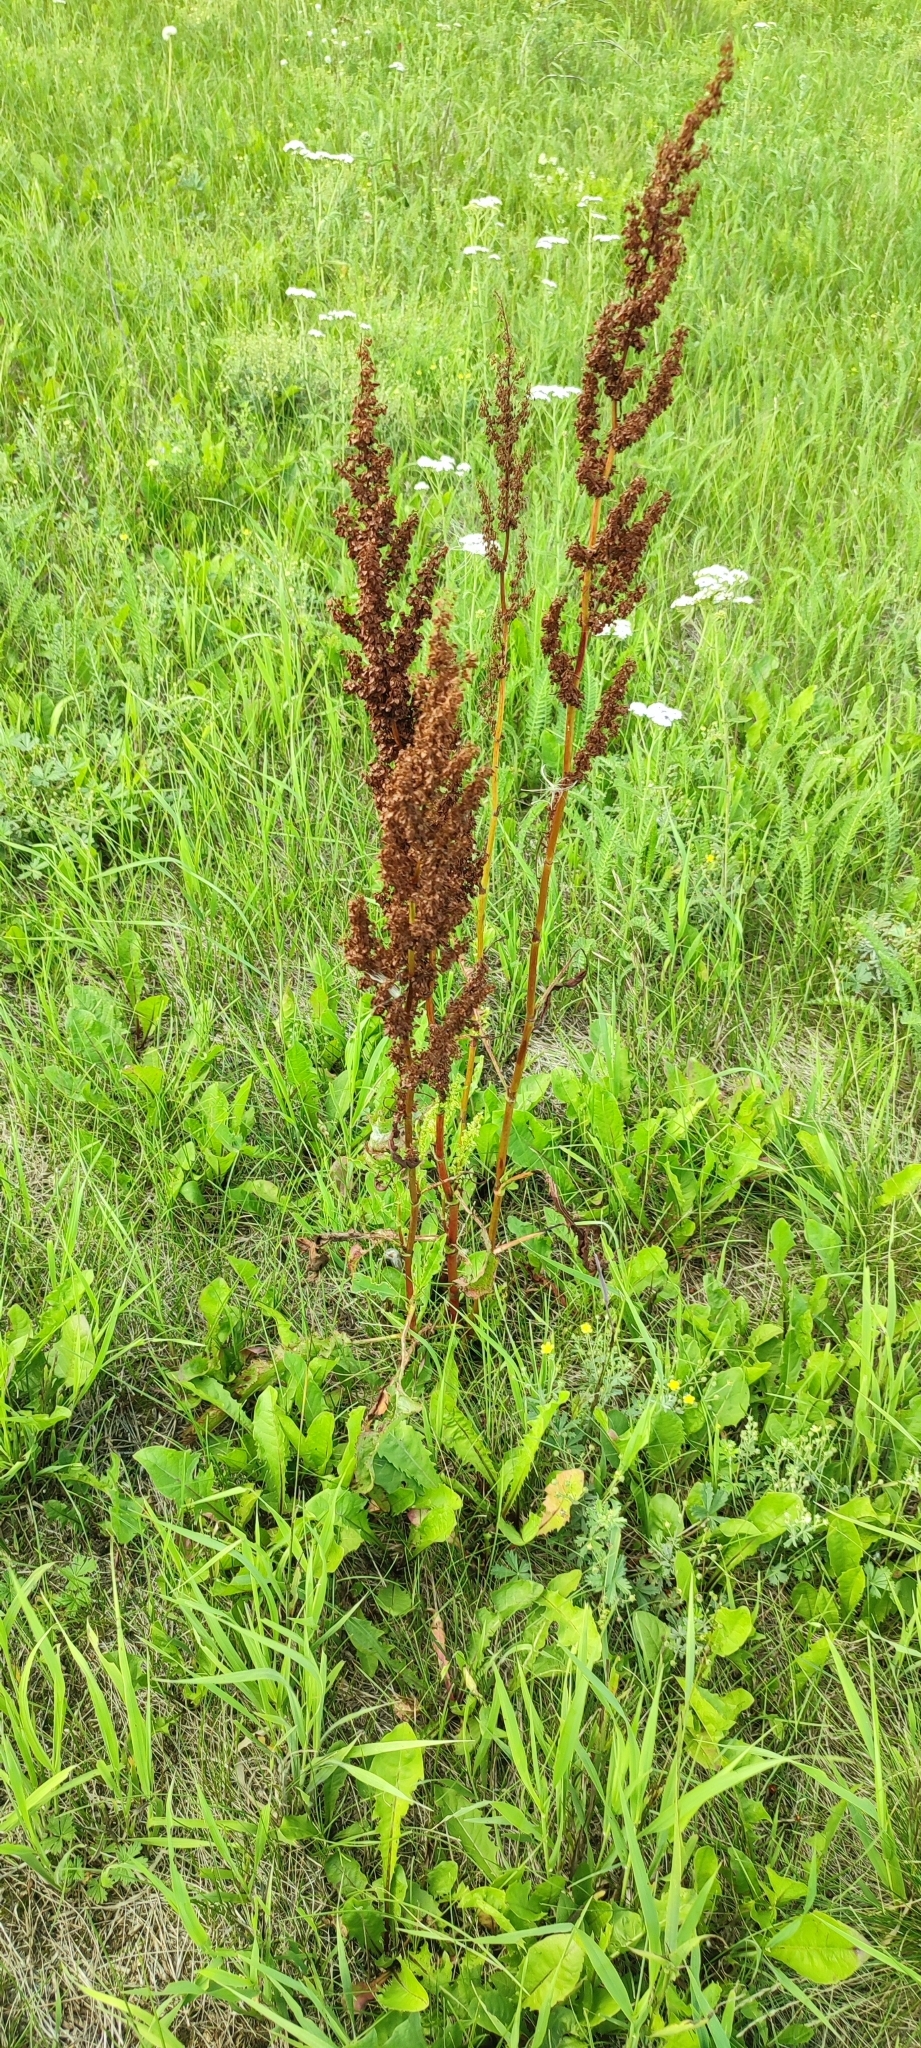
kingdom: Plantae
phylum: Tracheophyta
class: Magnoliopsida
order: Caryophyllales
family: Polygonaceae
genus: Rumex
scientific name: Rumex pseudonatronatus
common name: Field dock
